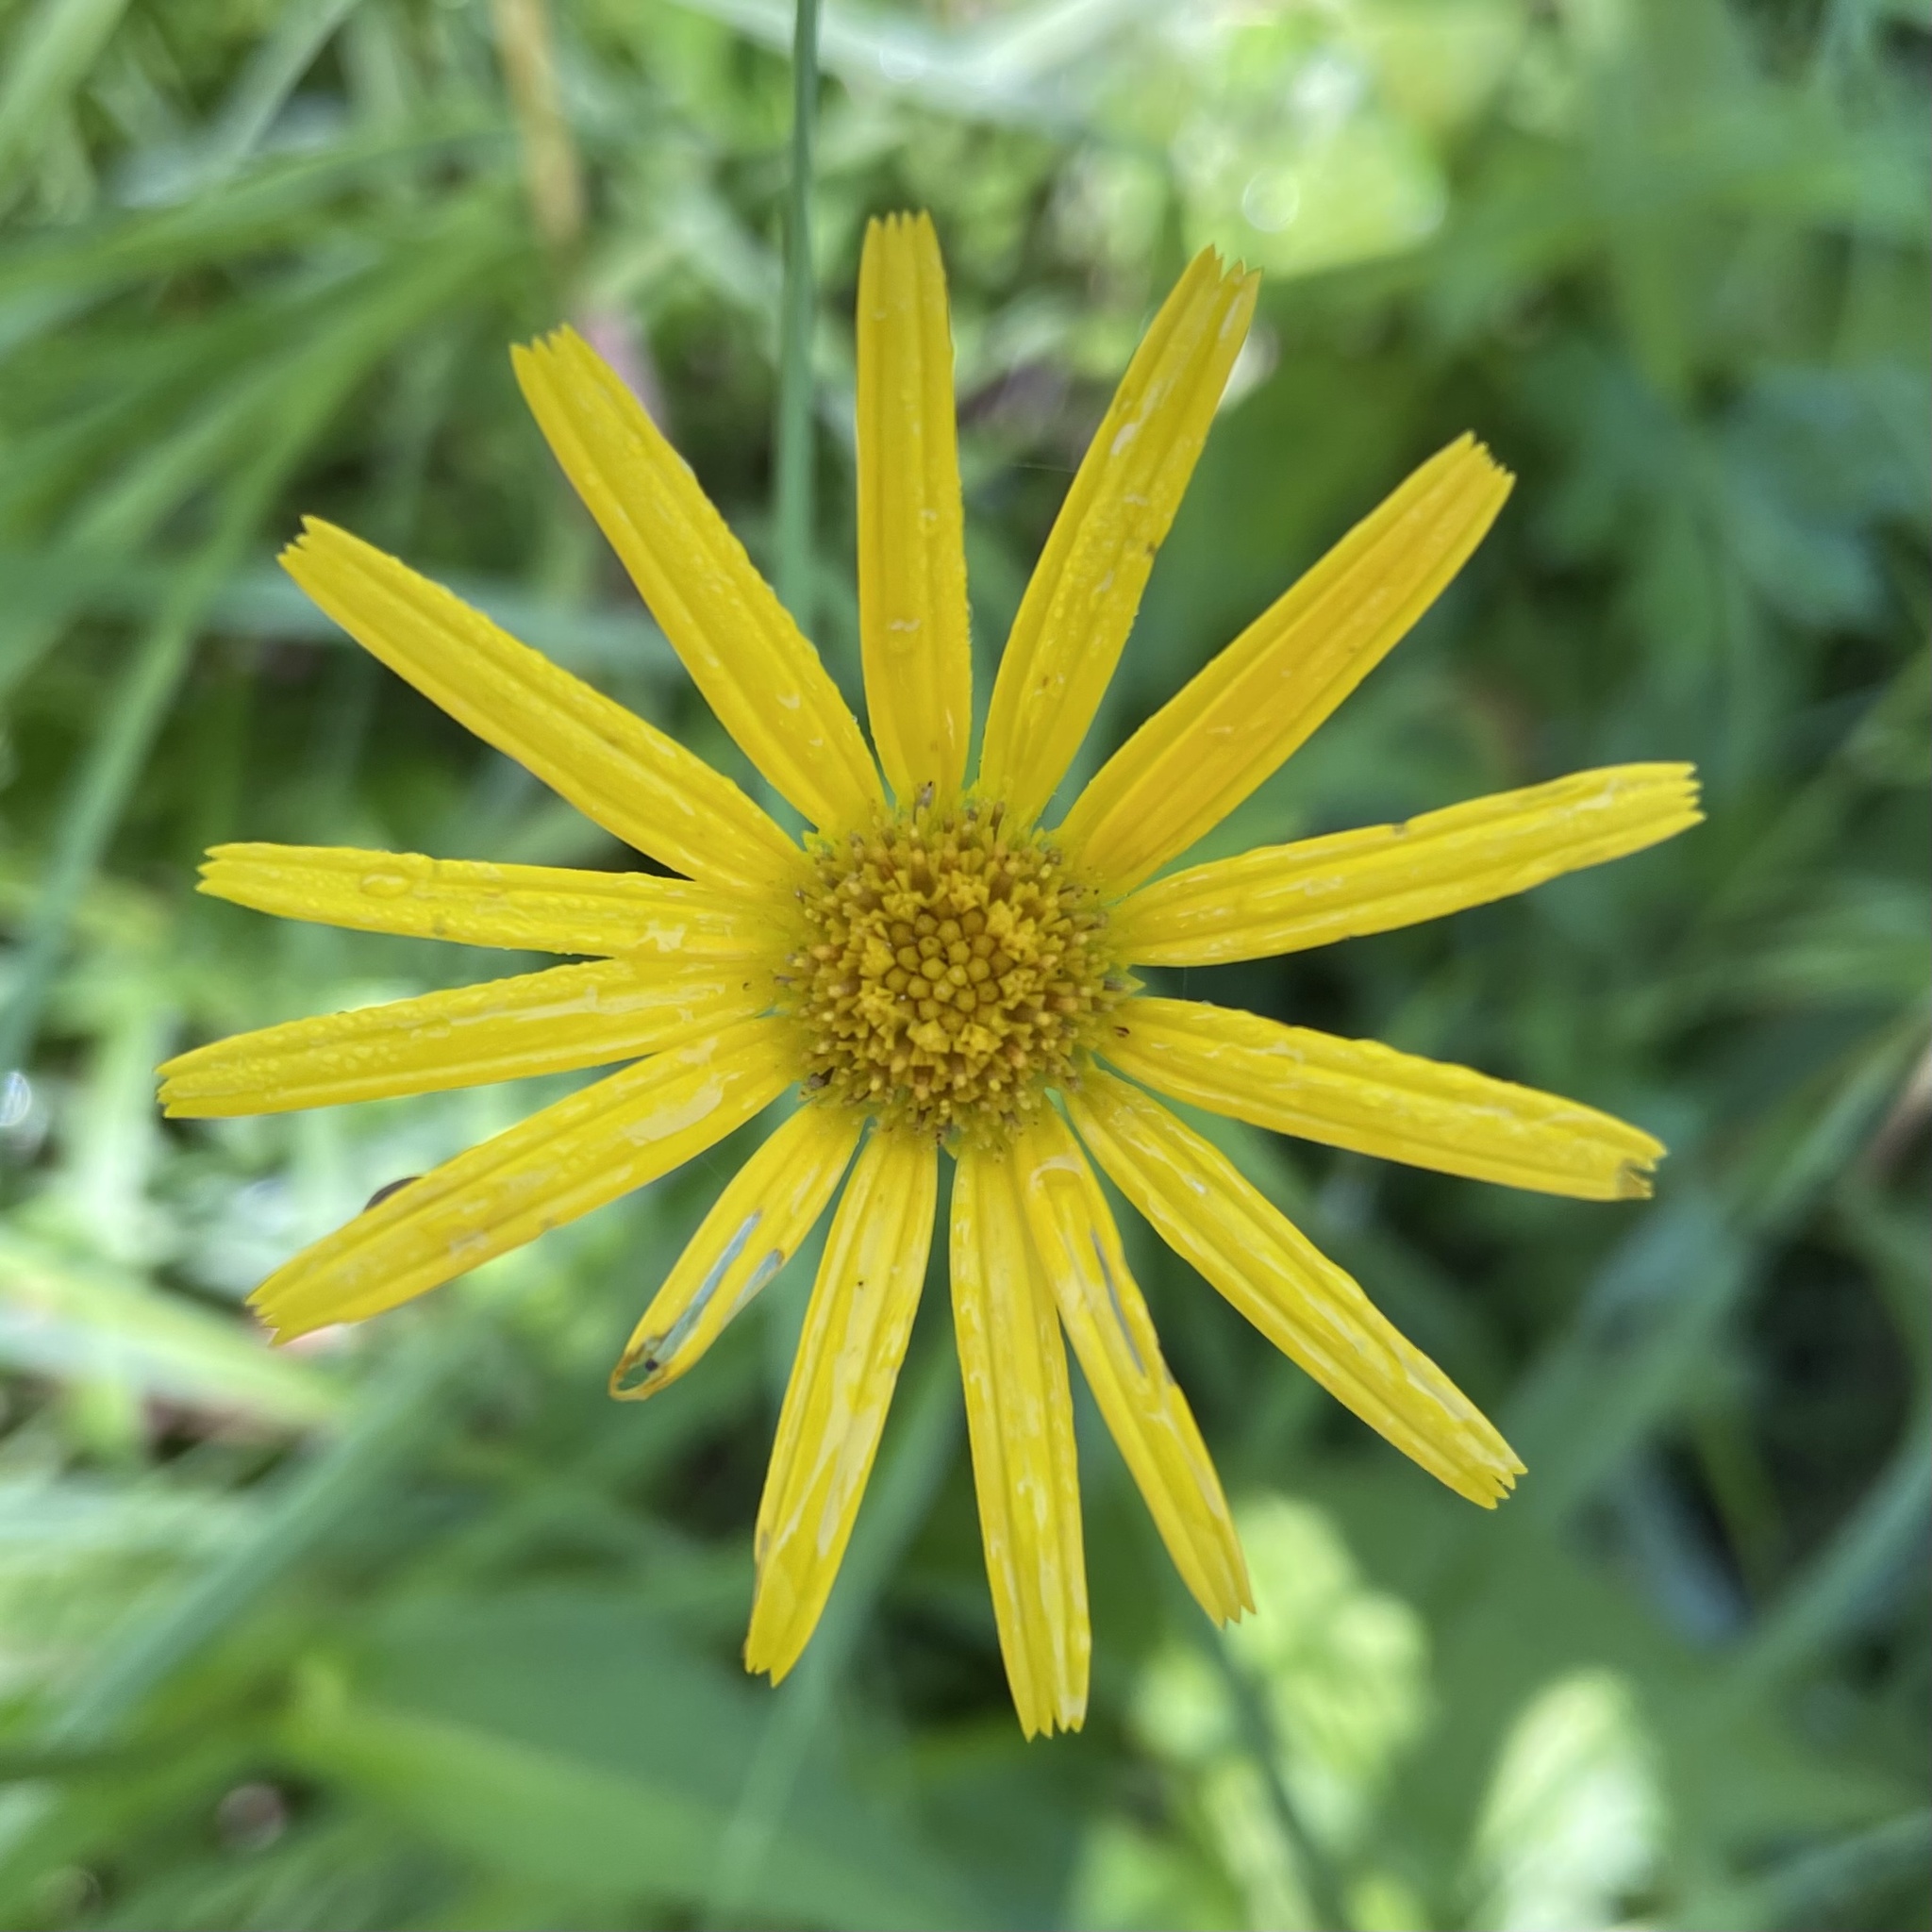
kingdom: Plantae
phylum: Tracheophyta
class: Magnoliopsida
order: Asterales
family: Asteraceae
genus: Buphthalmum
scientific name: Buphthalmum salicifolium
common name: Willow-leaved yellow-oxeye
